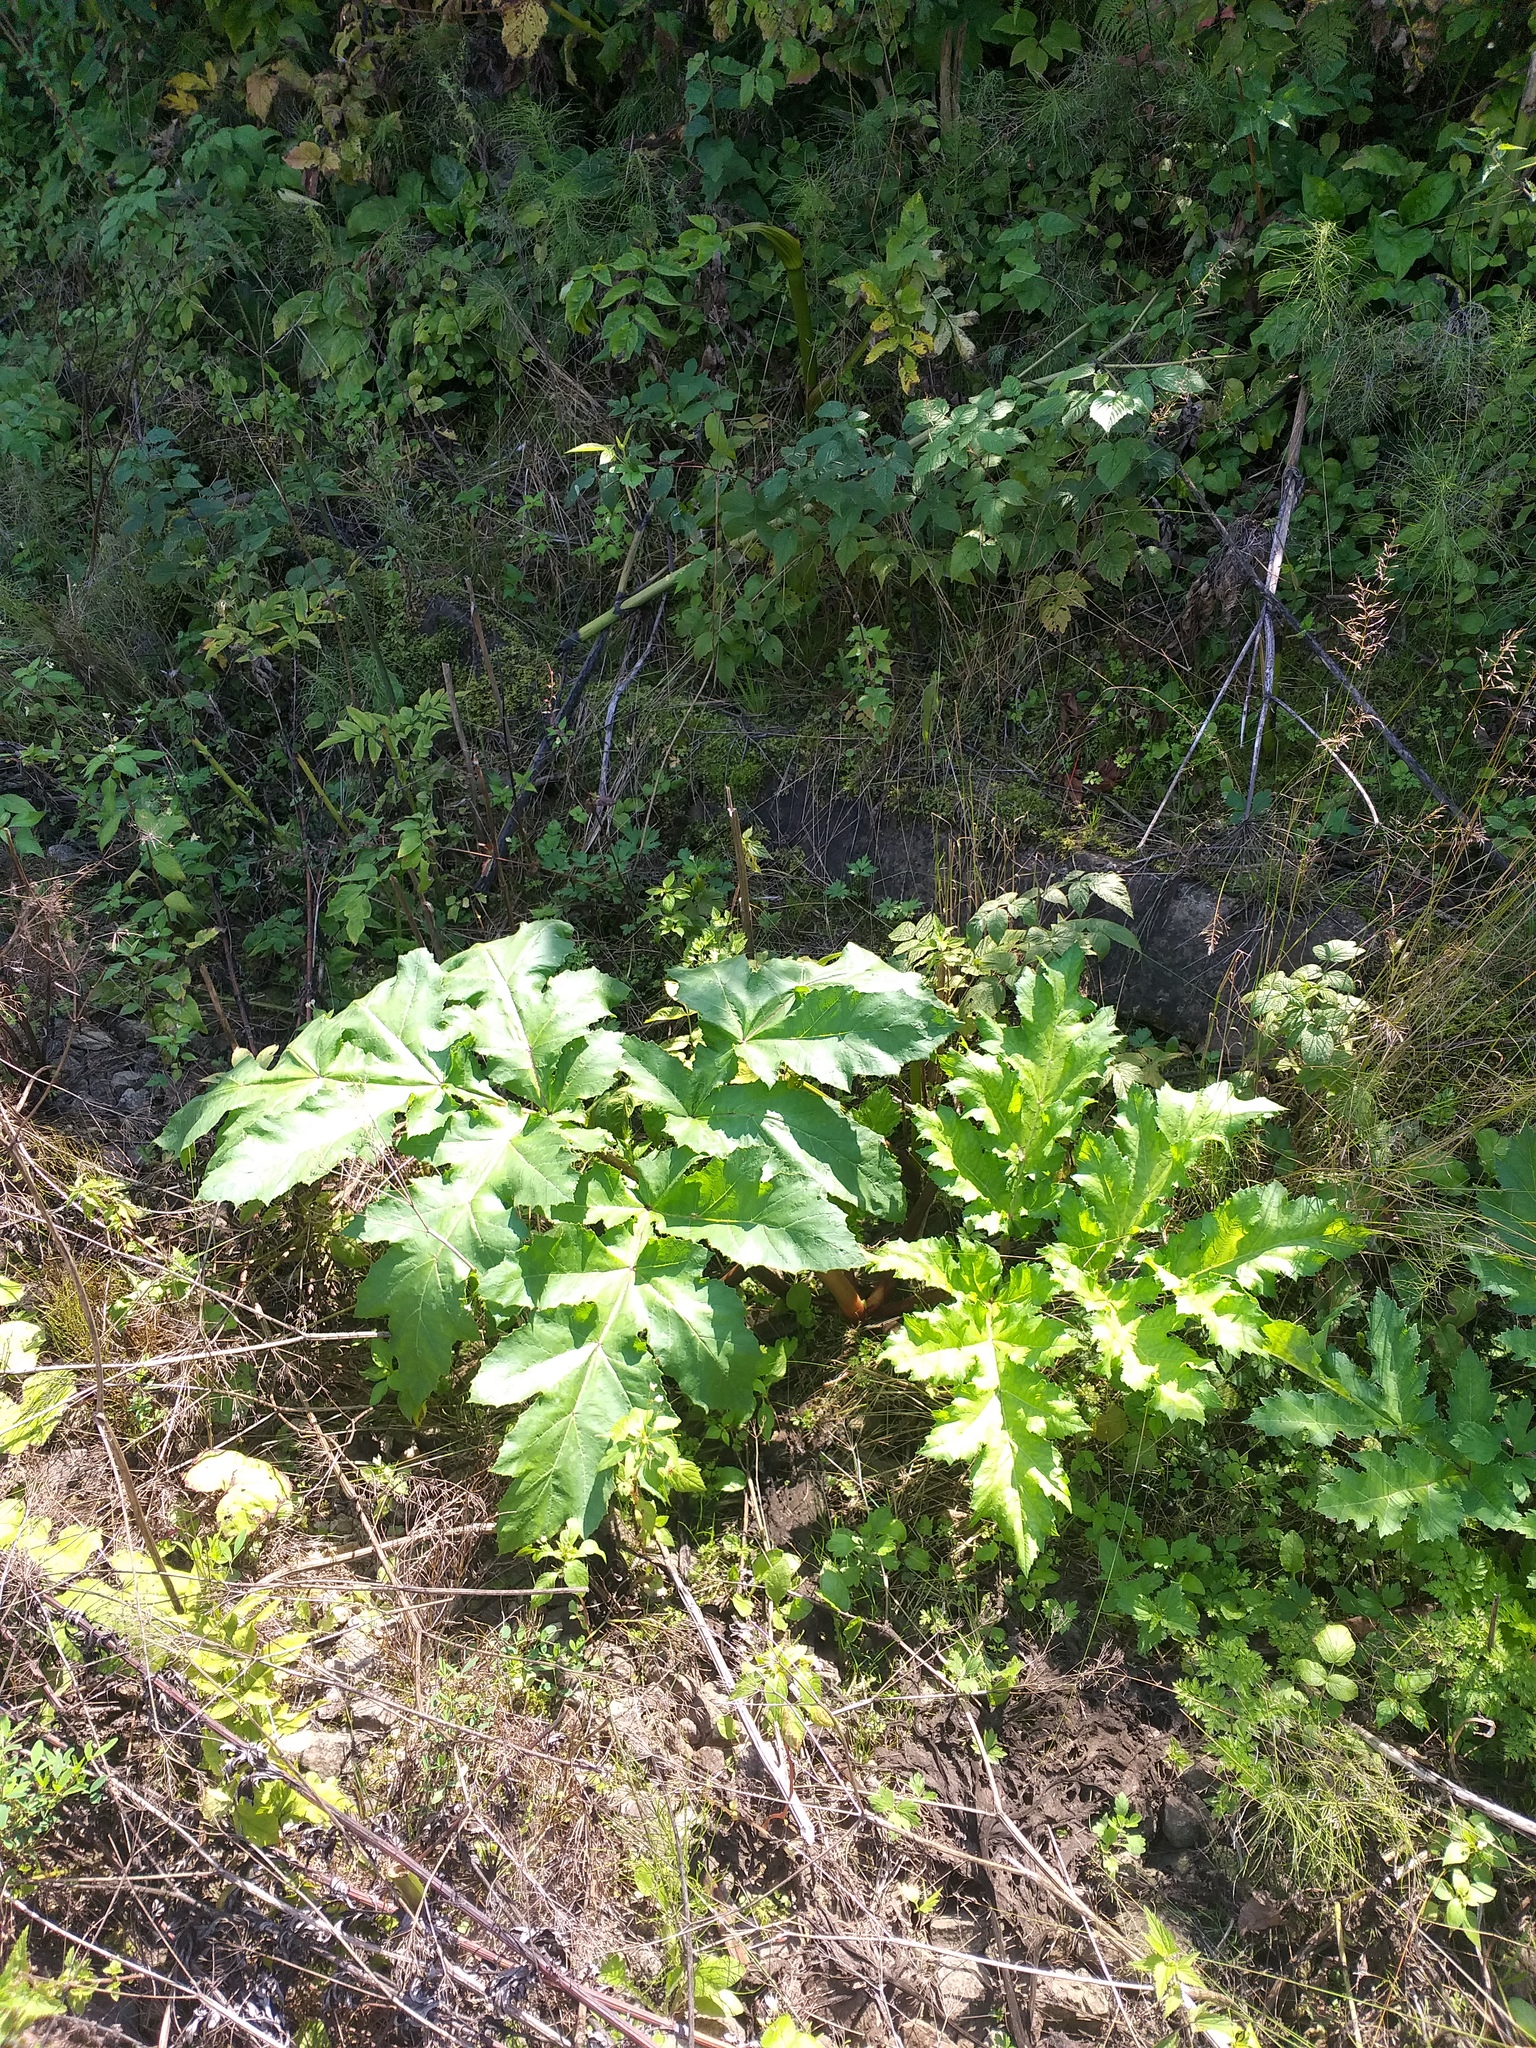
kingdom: Plantae
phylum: Tracheophyta
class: Magnoliopsida
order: Apiales
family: Apiaceae
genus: Heracleum
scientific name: Heracleum sosnowskyi
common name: Sosnowsky's hogweed
